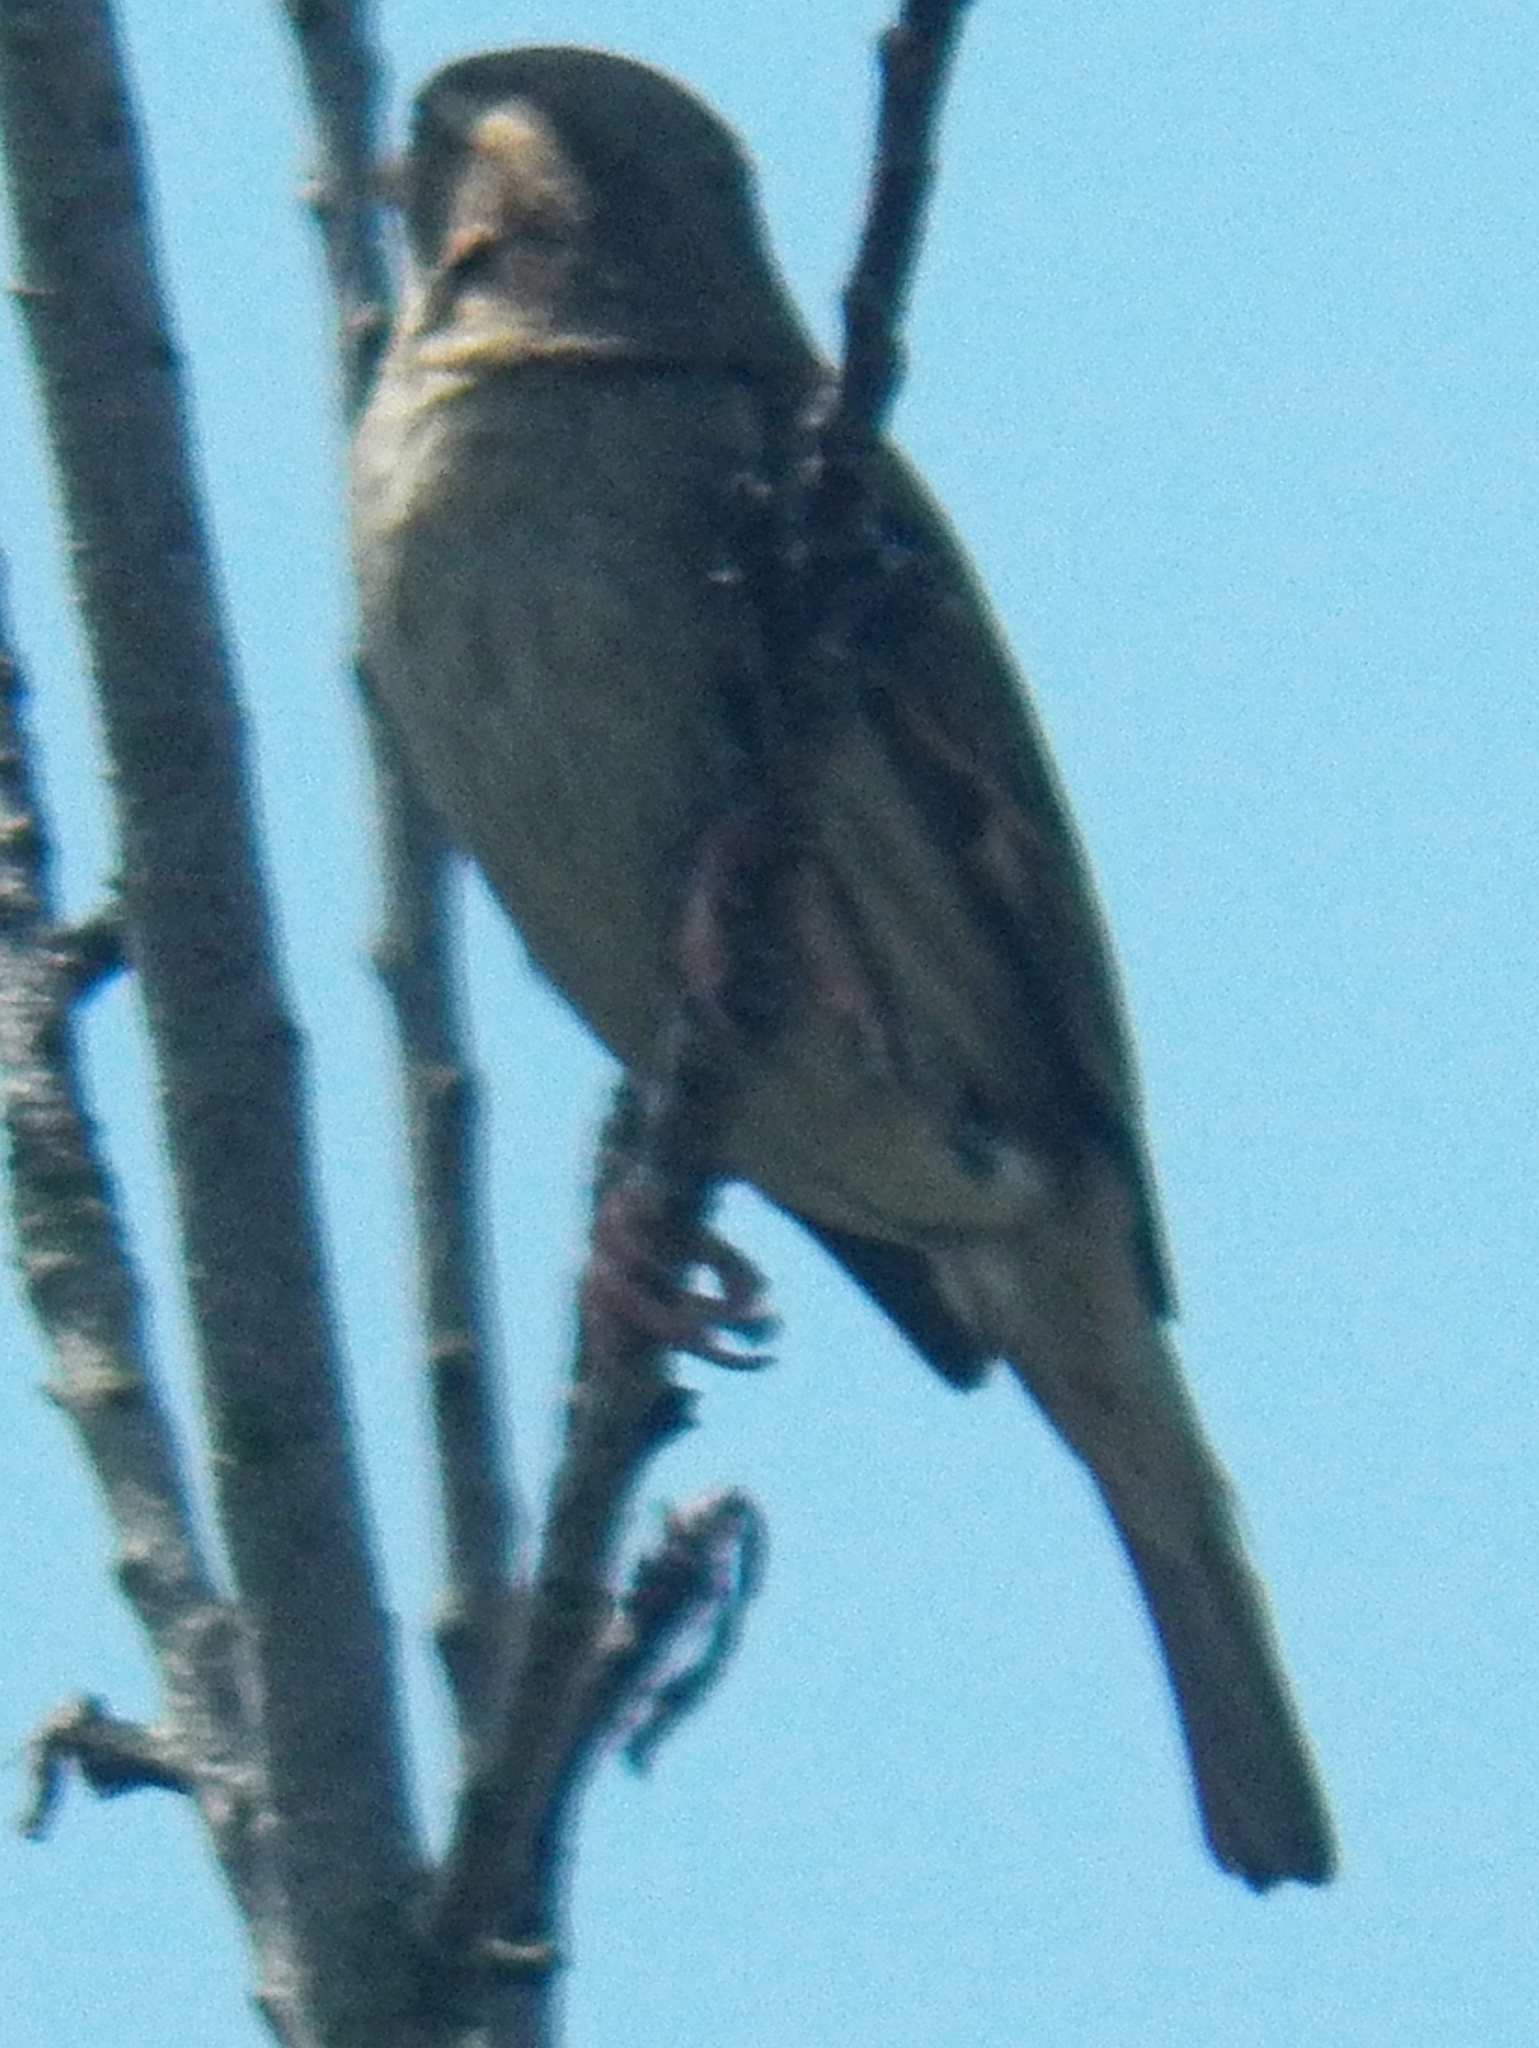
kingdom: Animalia
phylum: Chordata
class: Aves
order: Passeriformes
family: Passeridae
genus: Passer
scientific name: Passer domesticus
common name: House sparrow
